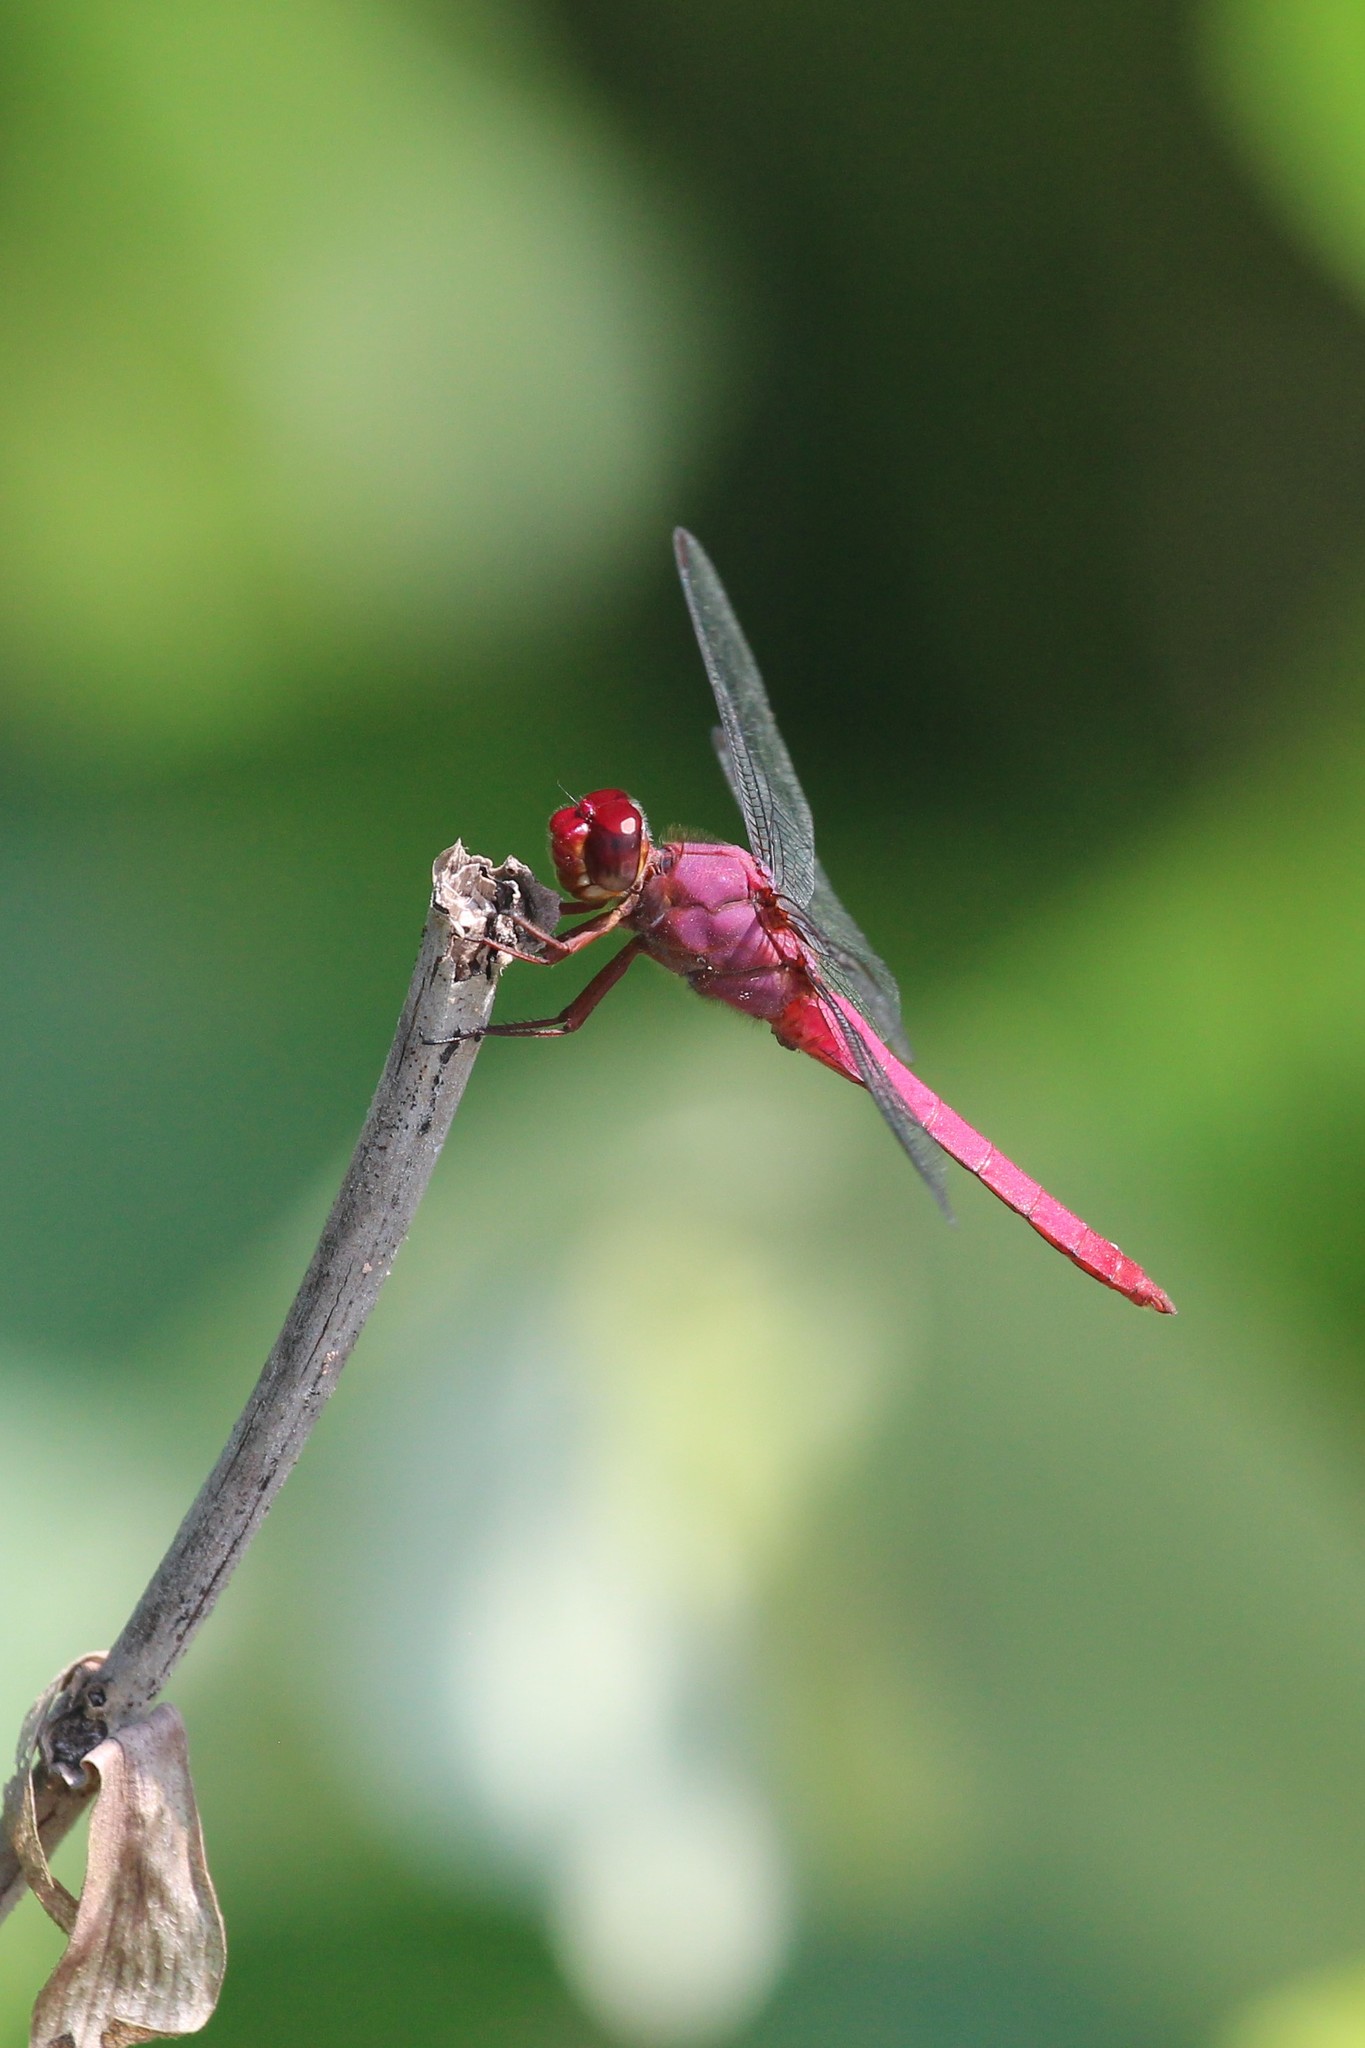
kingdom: Animalia
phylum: Arthropoda
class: Insecta
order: Odonata
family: Libellulidae
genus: Orthemis
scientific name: Orthemis discolor
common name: Carmine skimmer
